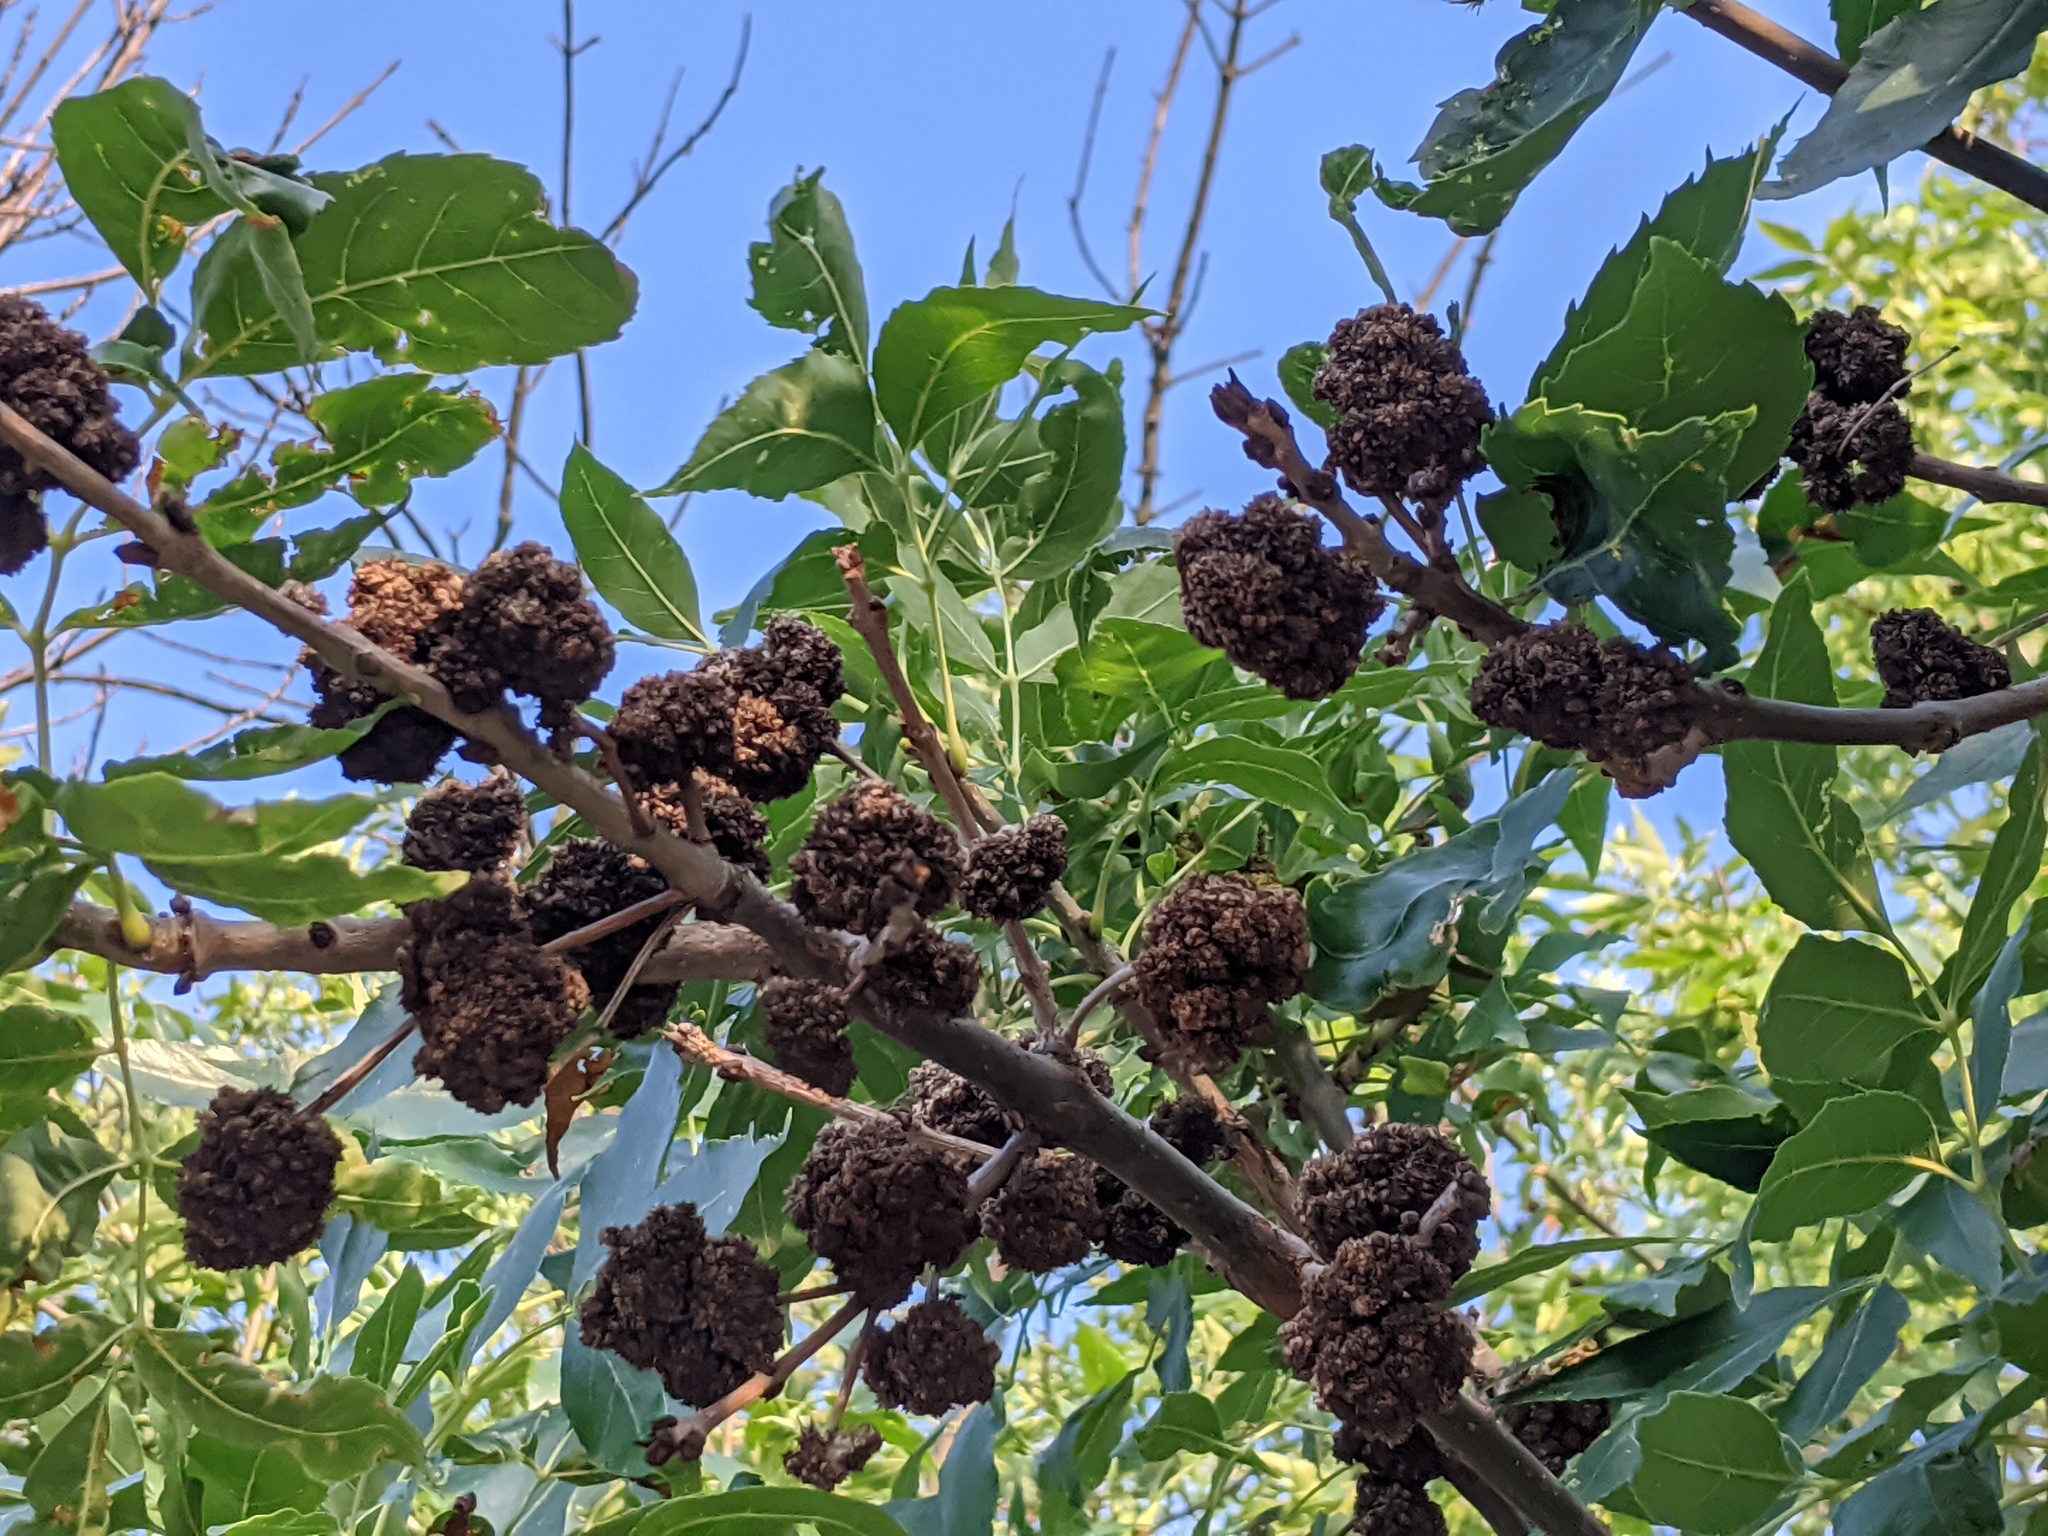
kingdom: Animalia
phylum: Arthropoda
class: Arachnida
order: Trombidiformes
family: Eriophyidae
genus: Aceria
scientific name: Aceria fraxiniflora
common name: Ash flower gall mite
